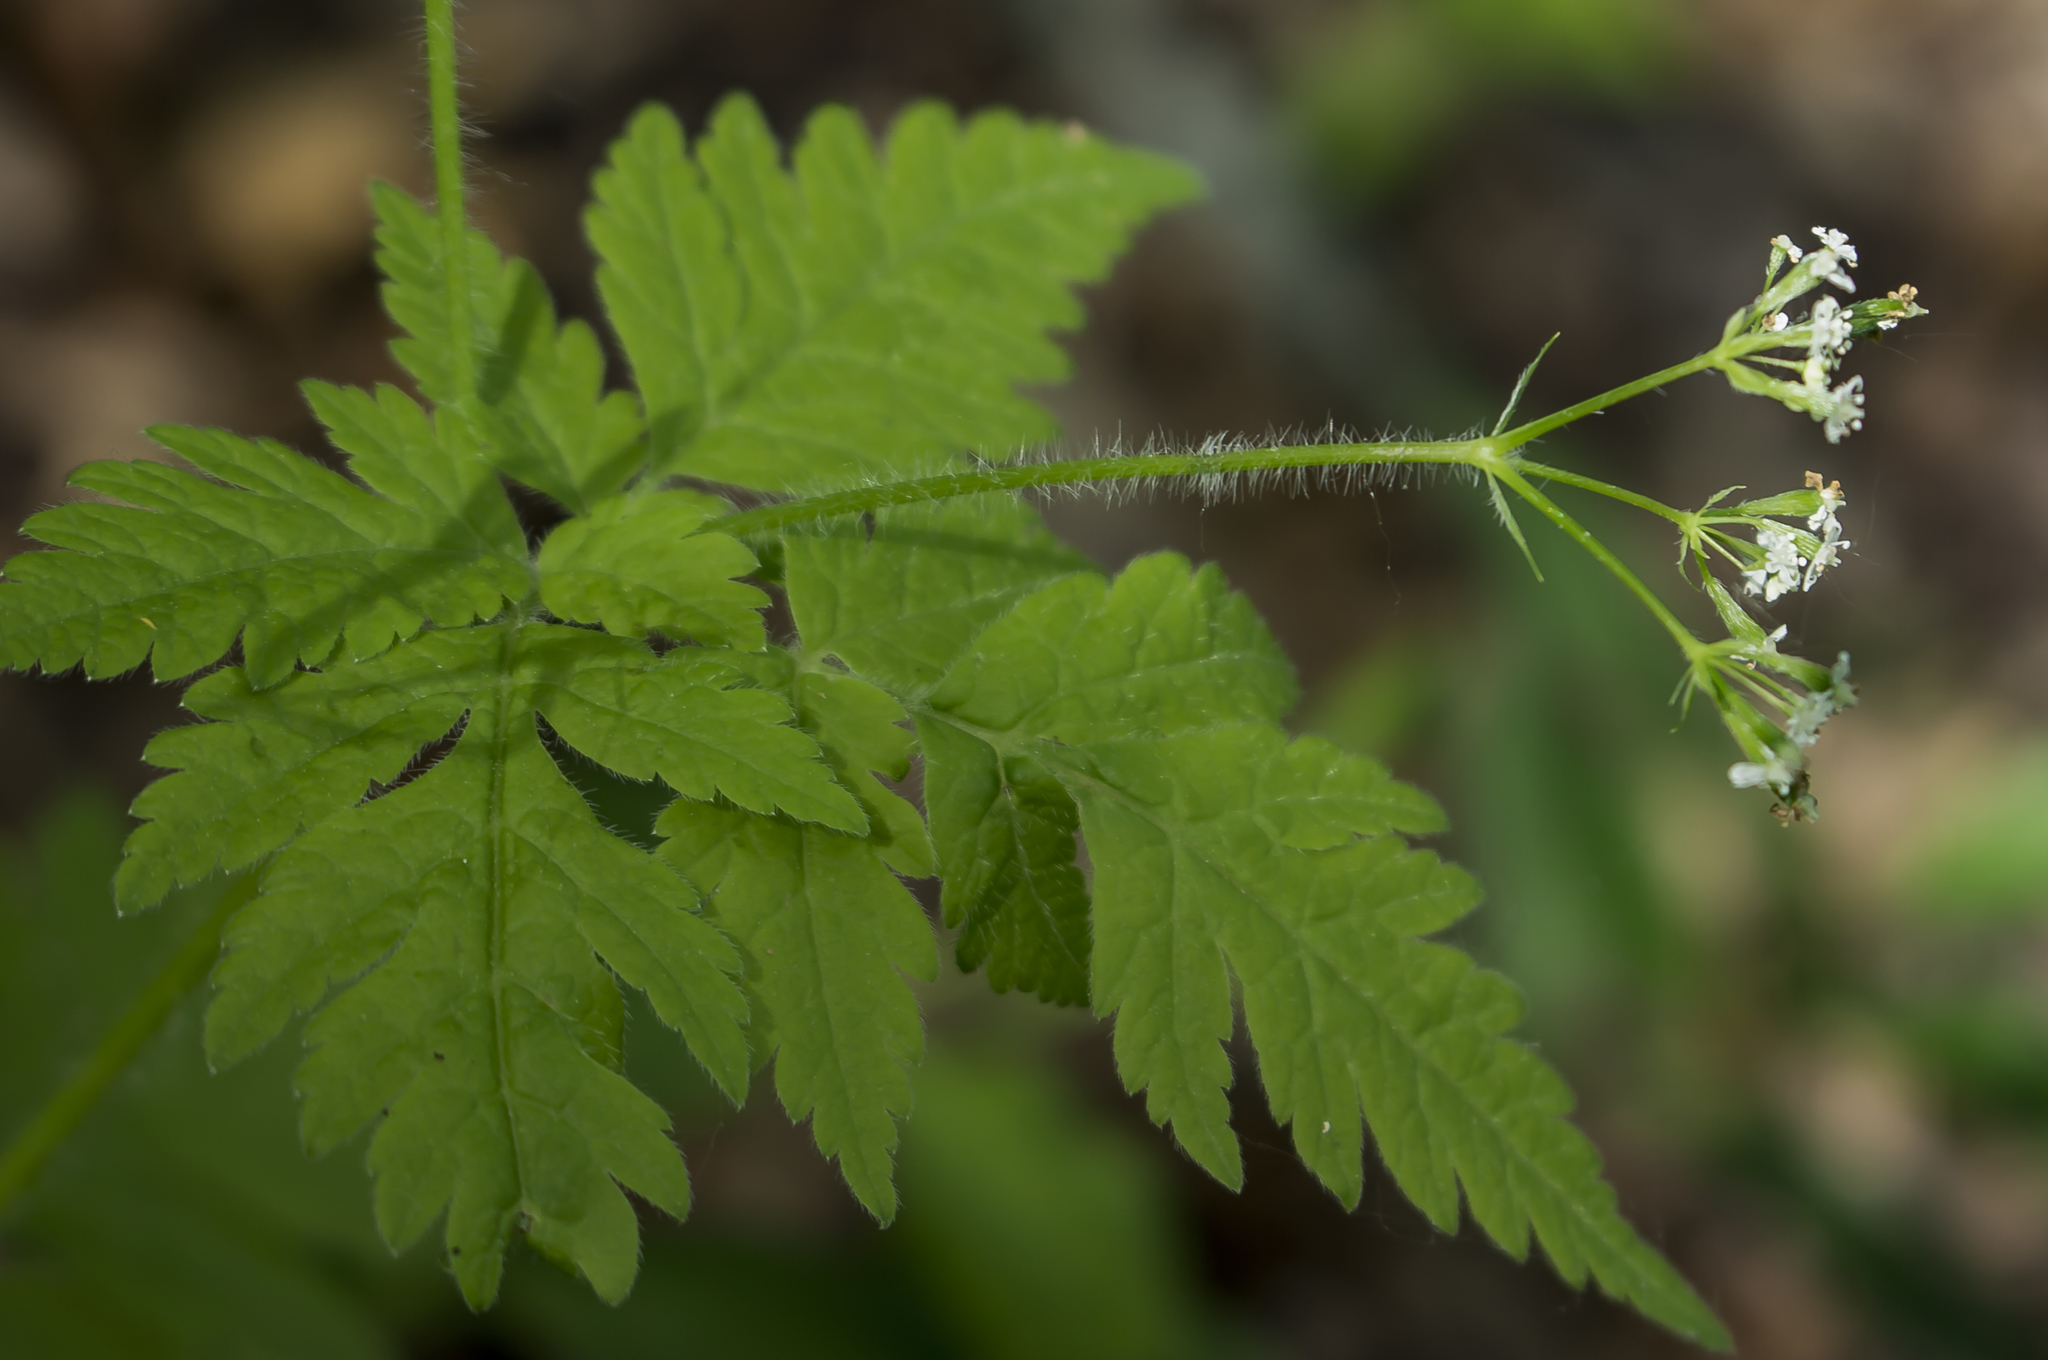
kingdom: Plantae
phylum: Tracheophyta
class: Magnoliopsida
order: Apiales
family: Apiaceae
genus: Osmorhiza
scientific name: Osmorhiza claytonii
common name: Hairy sweet cicely
